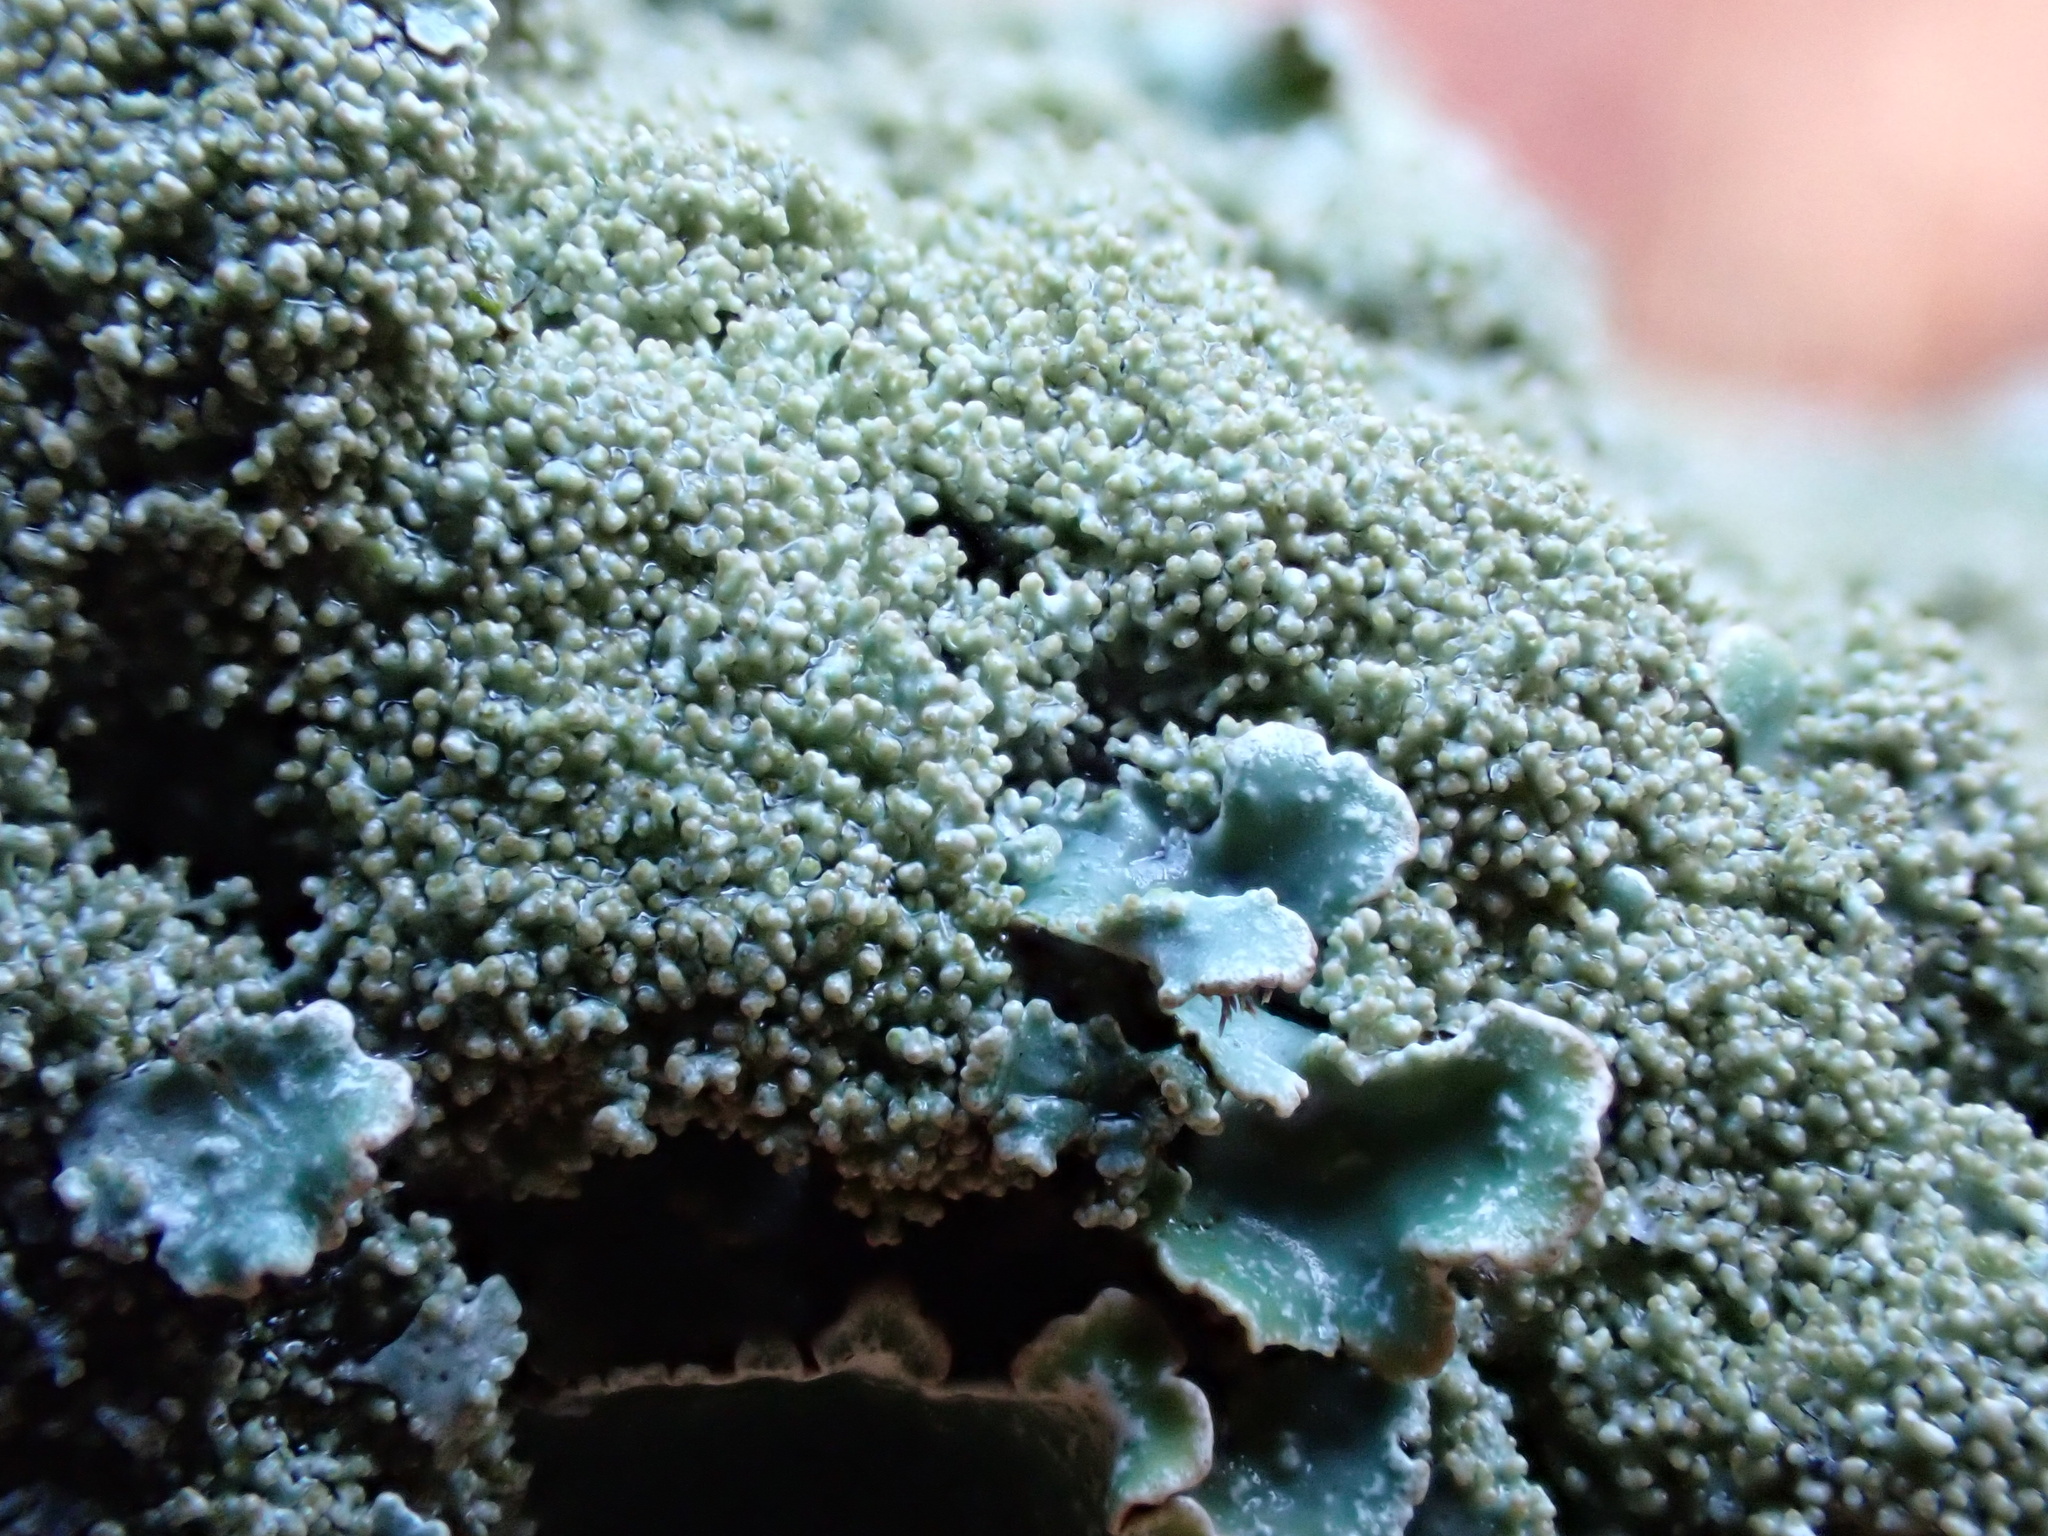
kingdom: Fungi
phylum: Ascomycota
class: Lecanoromycetes
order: Lecanorales
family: Parmeliaceae
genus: Parmelia
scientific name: Parmelia saxatilis
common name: Salted shield lichen
